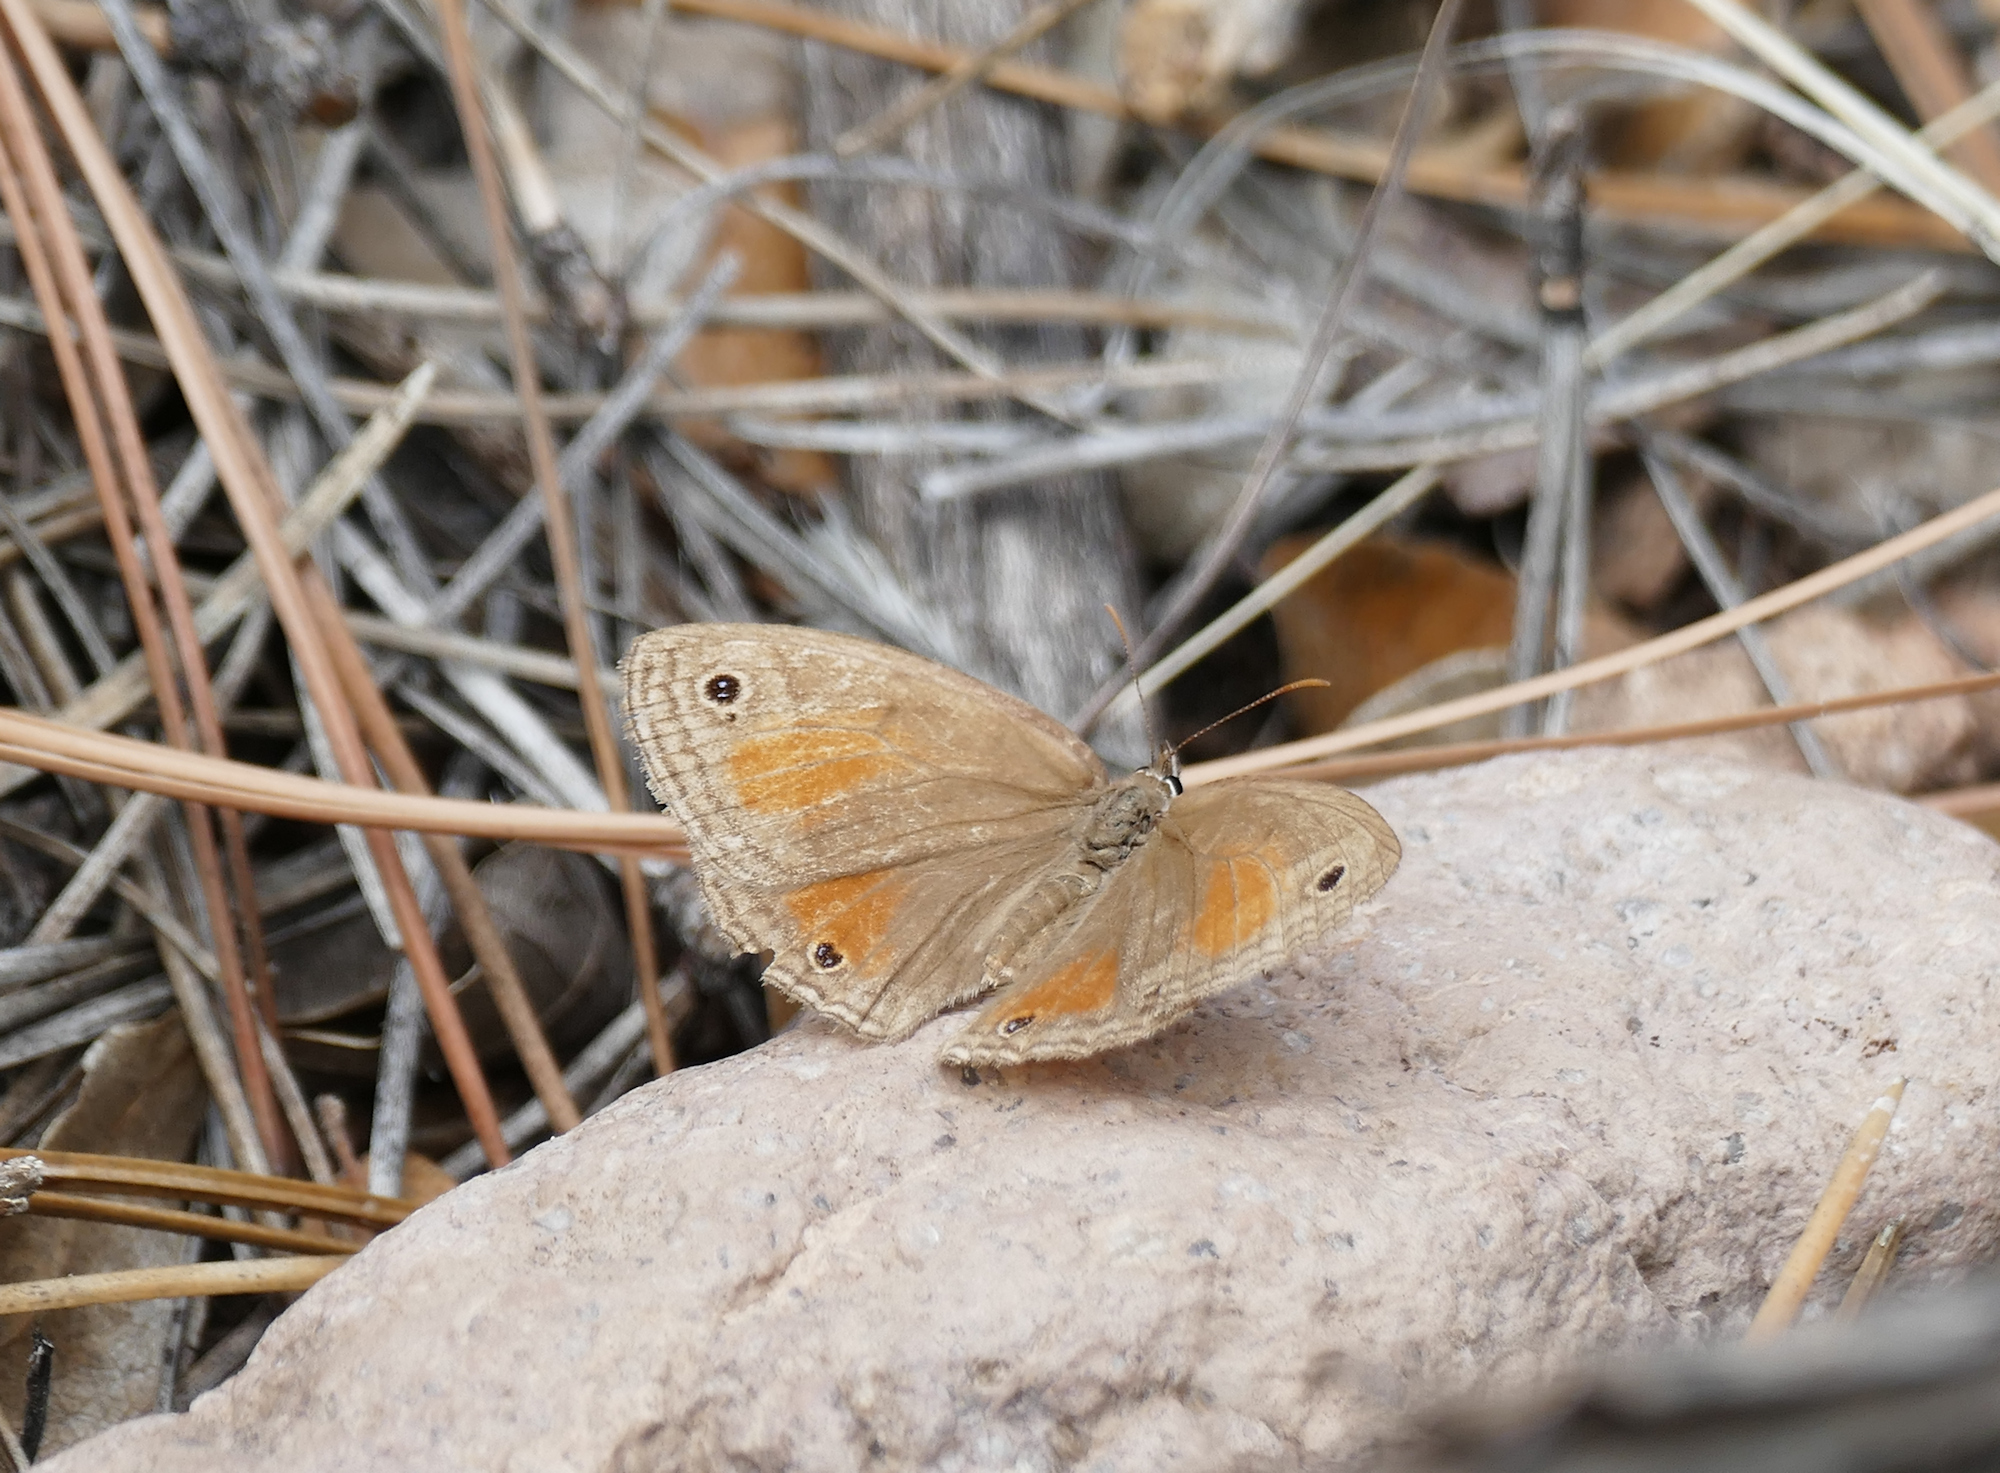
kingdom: Animalia
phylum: Arthropoda
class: Insecta
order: Lepidoptera
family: Nymphalidae
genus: Euptychia
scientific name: Euptychia
